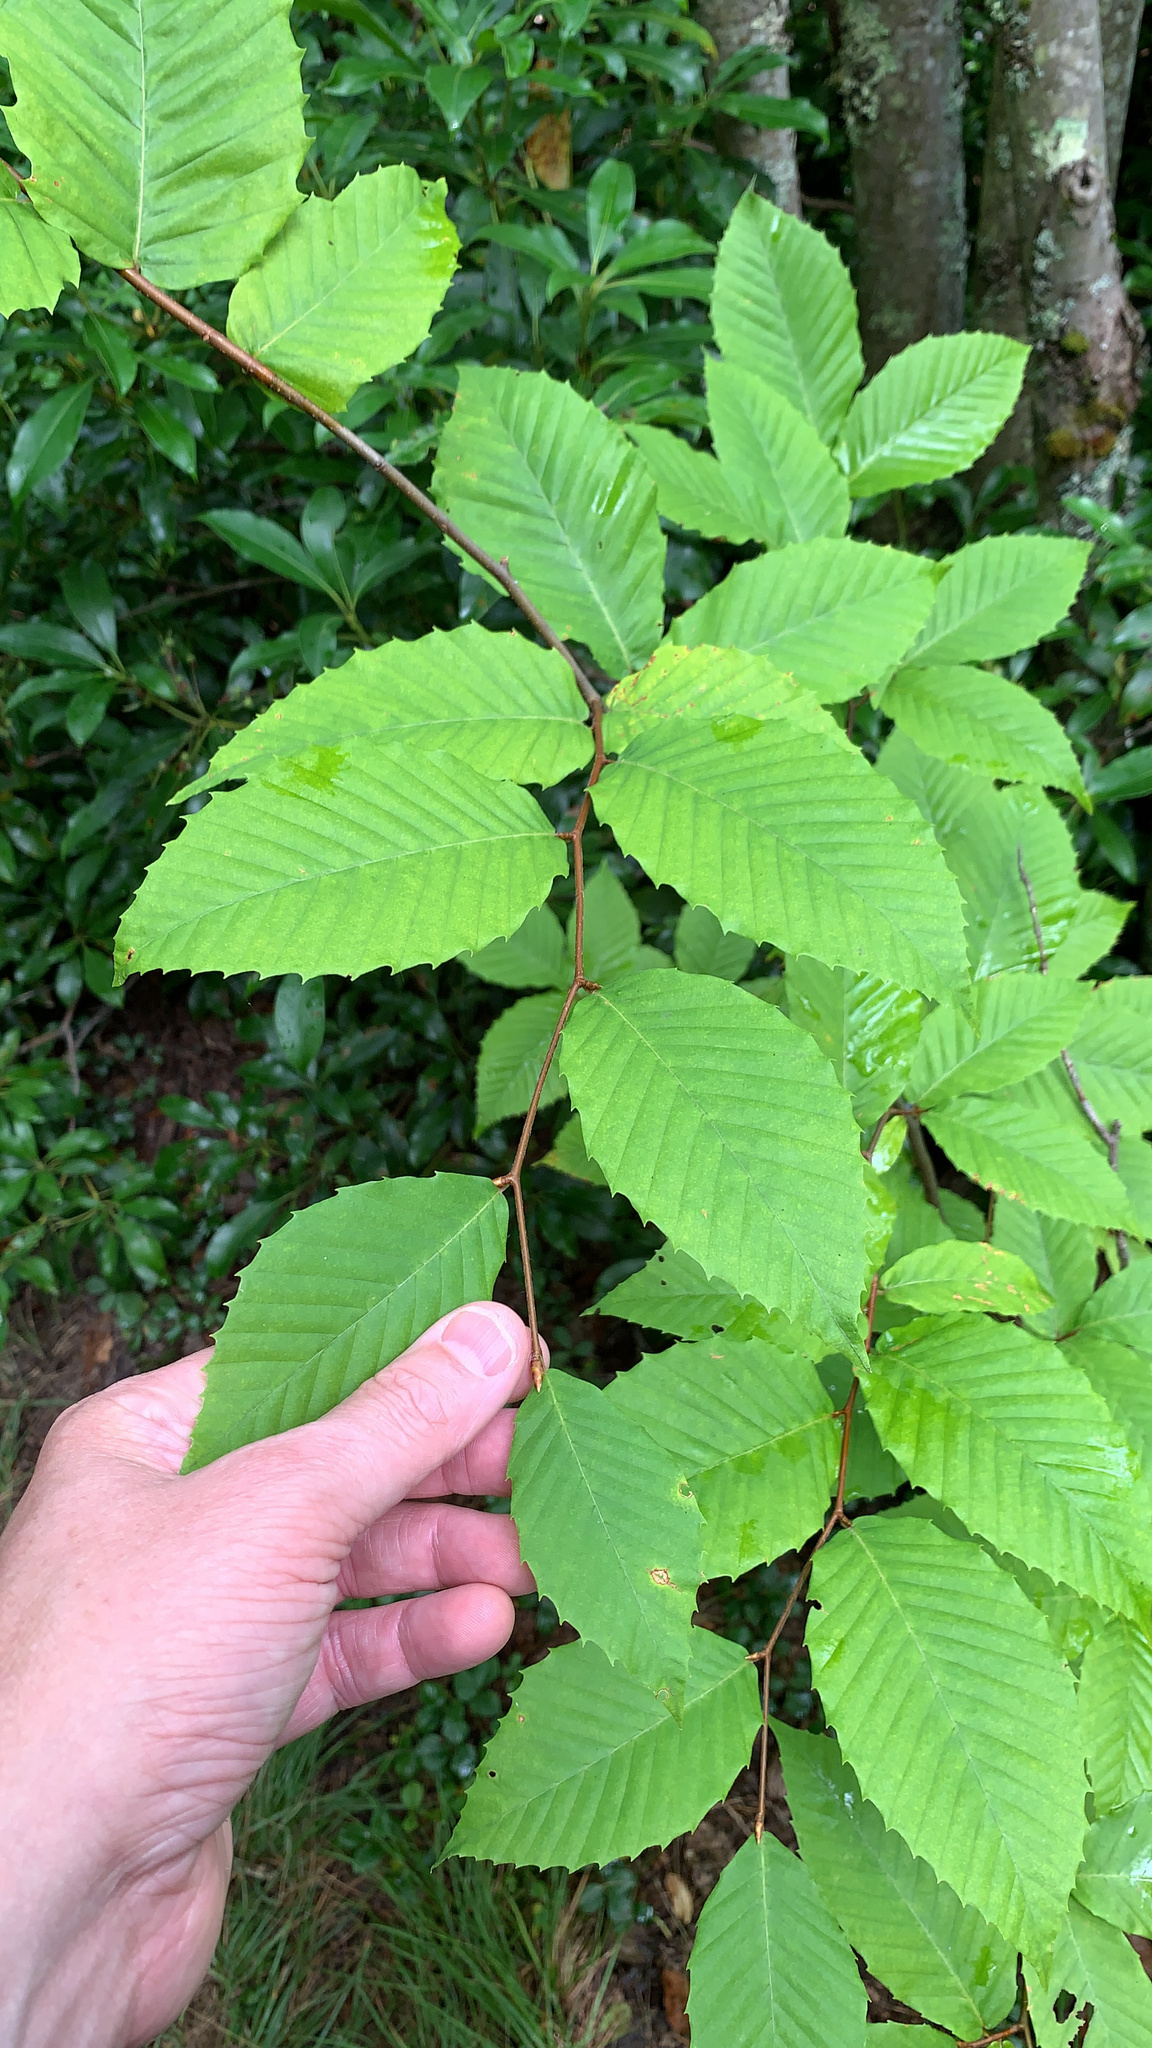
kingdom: Plantae
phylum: Tracheophyta
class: Magnoliopsida
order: Fagales
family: Fagaceae
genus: Fagus
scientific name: Fagus grandifolia
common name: American beech
